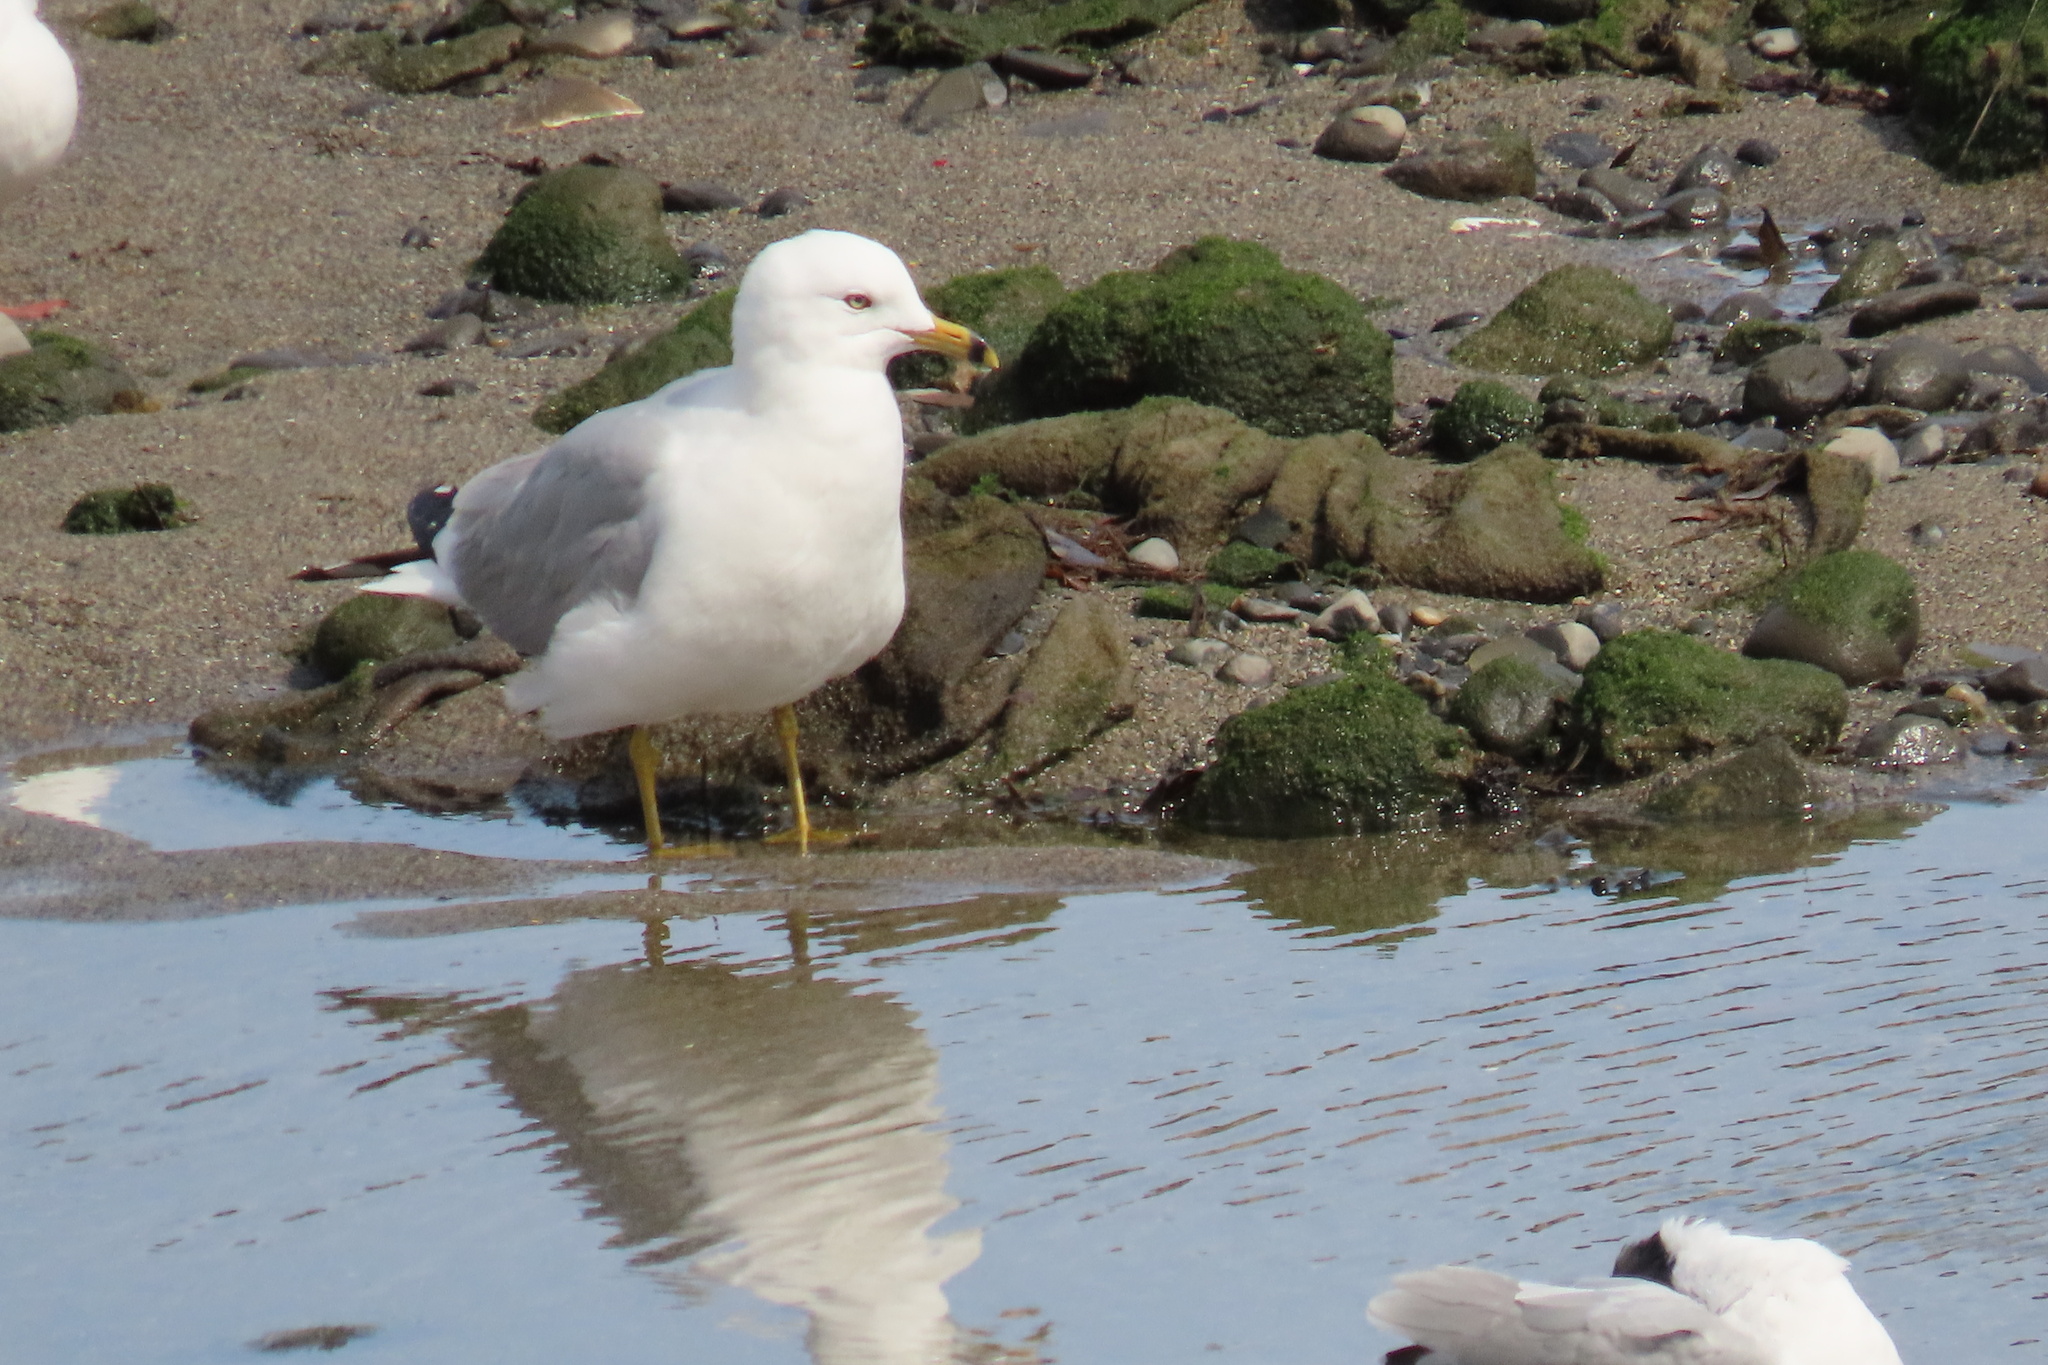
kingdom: Animalia
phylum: Chordata
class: Aves
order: Charadriiformes
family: Laridae
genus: Larus
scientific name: Larus delawarensis
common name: Ring-billed gull
